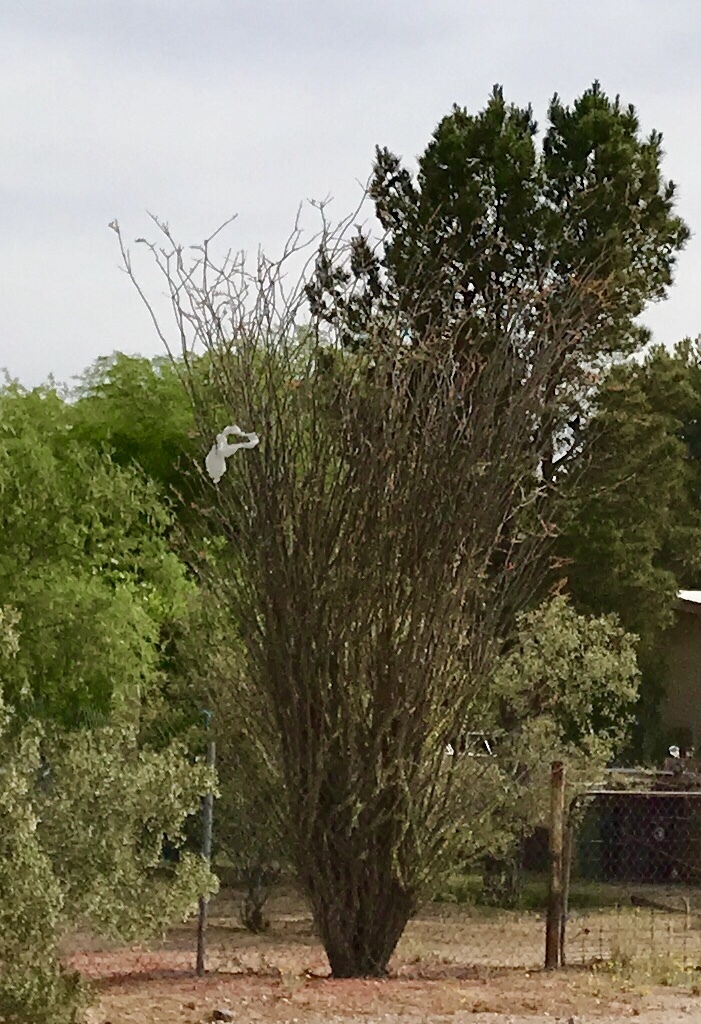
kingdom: Plantae
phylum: Tracheophyta
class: Magnoliopsida
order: Ericales
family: Fouquieriaceae
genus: Fouquieria
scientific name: Fouquieria splendens
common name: Vine-cactus
